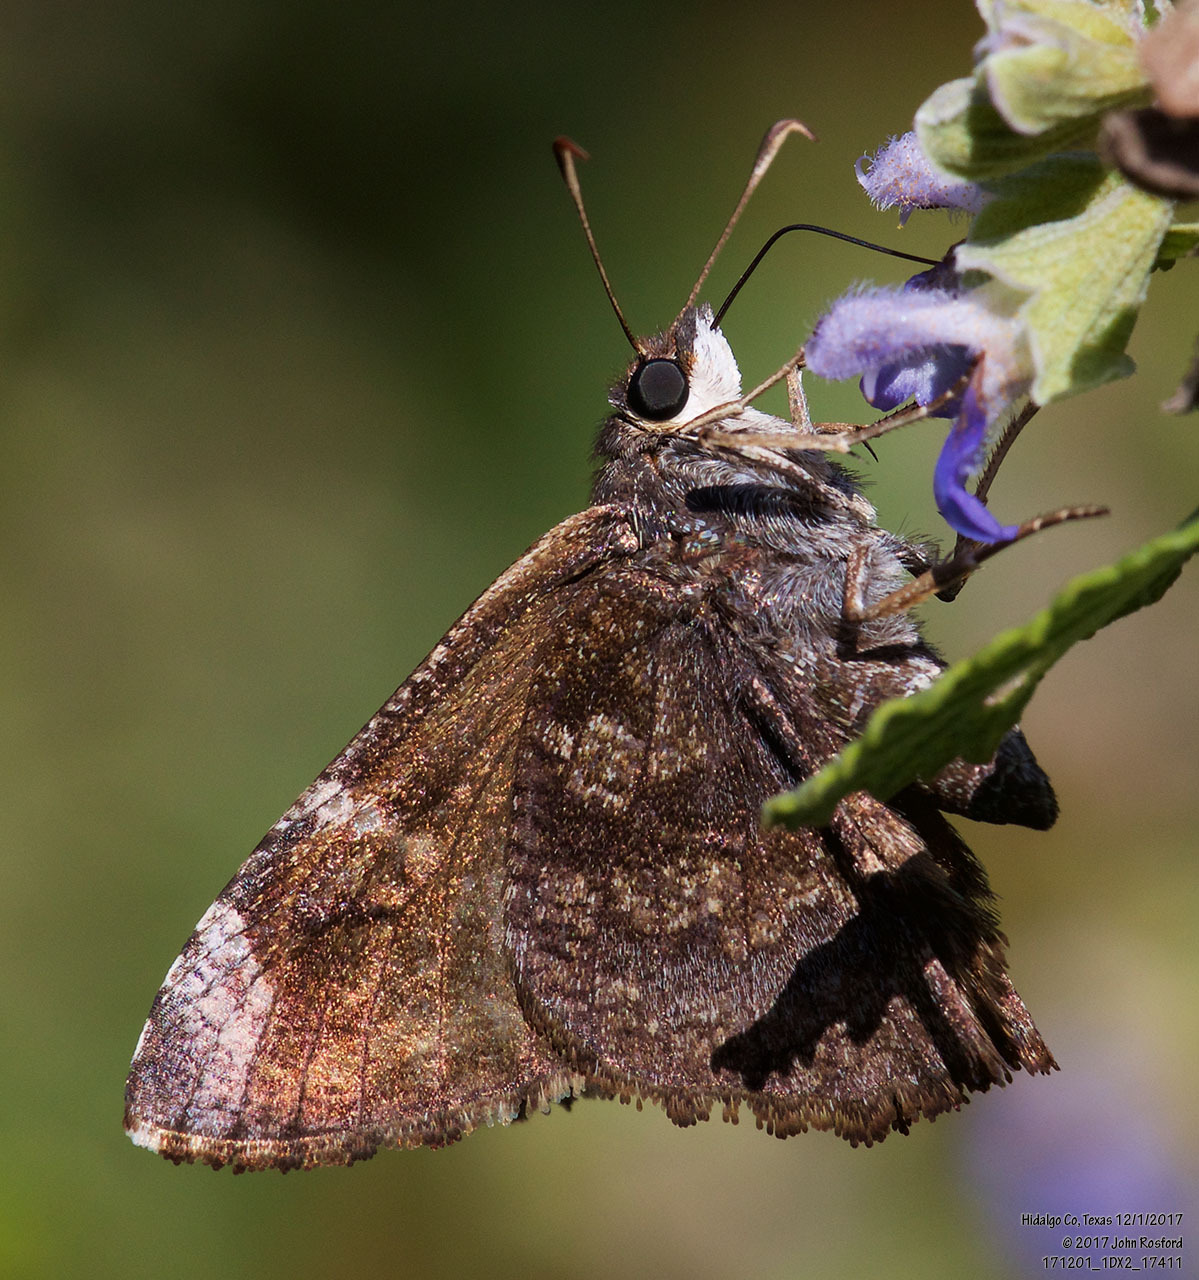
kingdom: Animalia
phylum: Arthropoda
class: Insecta
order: Lepidoptera
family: Hesperiidae
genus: Caicella
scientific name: Caicella calchas
